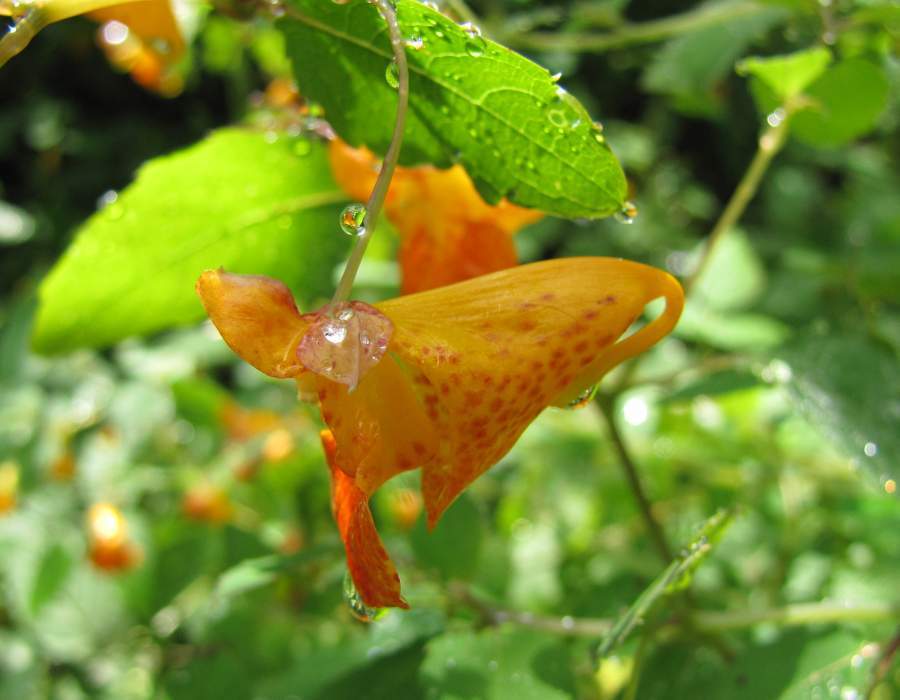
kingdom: Plantae
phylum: Tracheophyta
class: Magnoliopsida
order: Ericales
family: Balsaminaceae
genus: Impatiens
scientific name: Impatiens capensis
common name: Orange balsam
